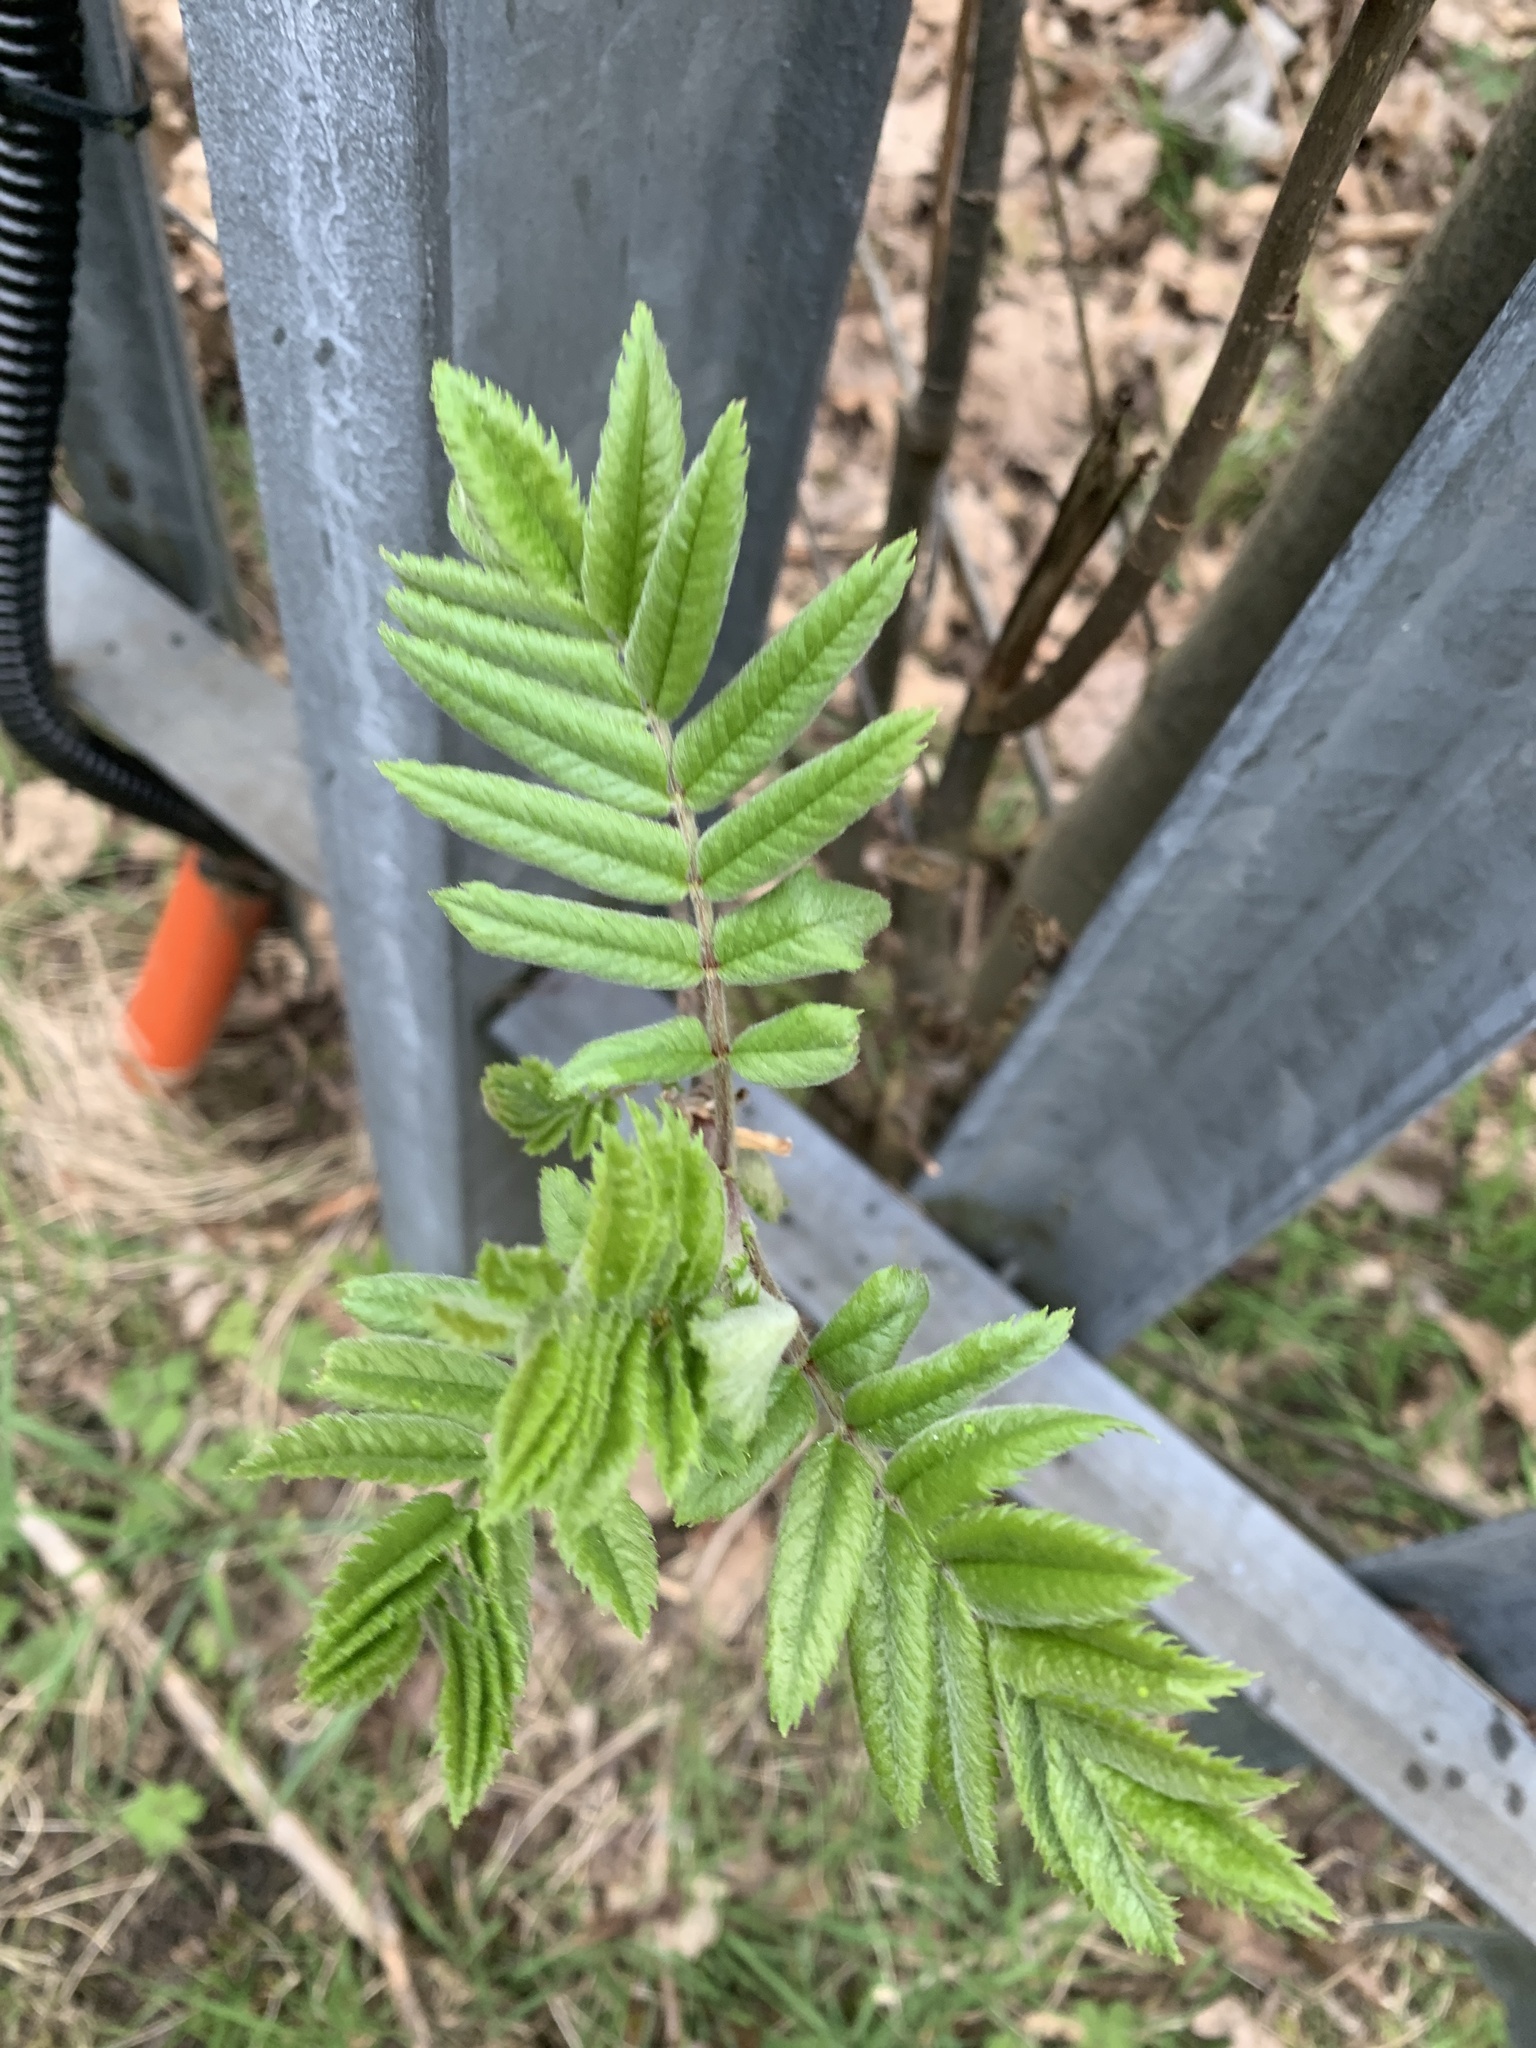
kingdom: Plantae
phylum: Tracheophyta
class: Magnoliopsida
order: Rosales
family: Rosaceae
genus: Sorbus
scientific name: Sorbus aucuparia
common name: Rowan
